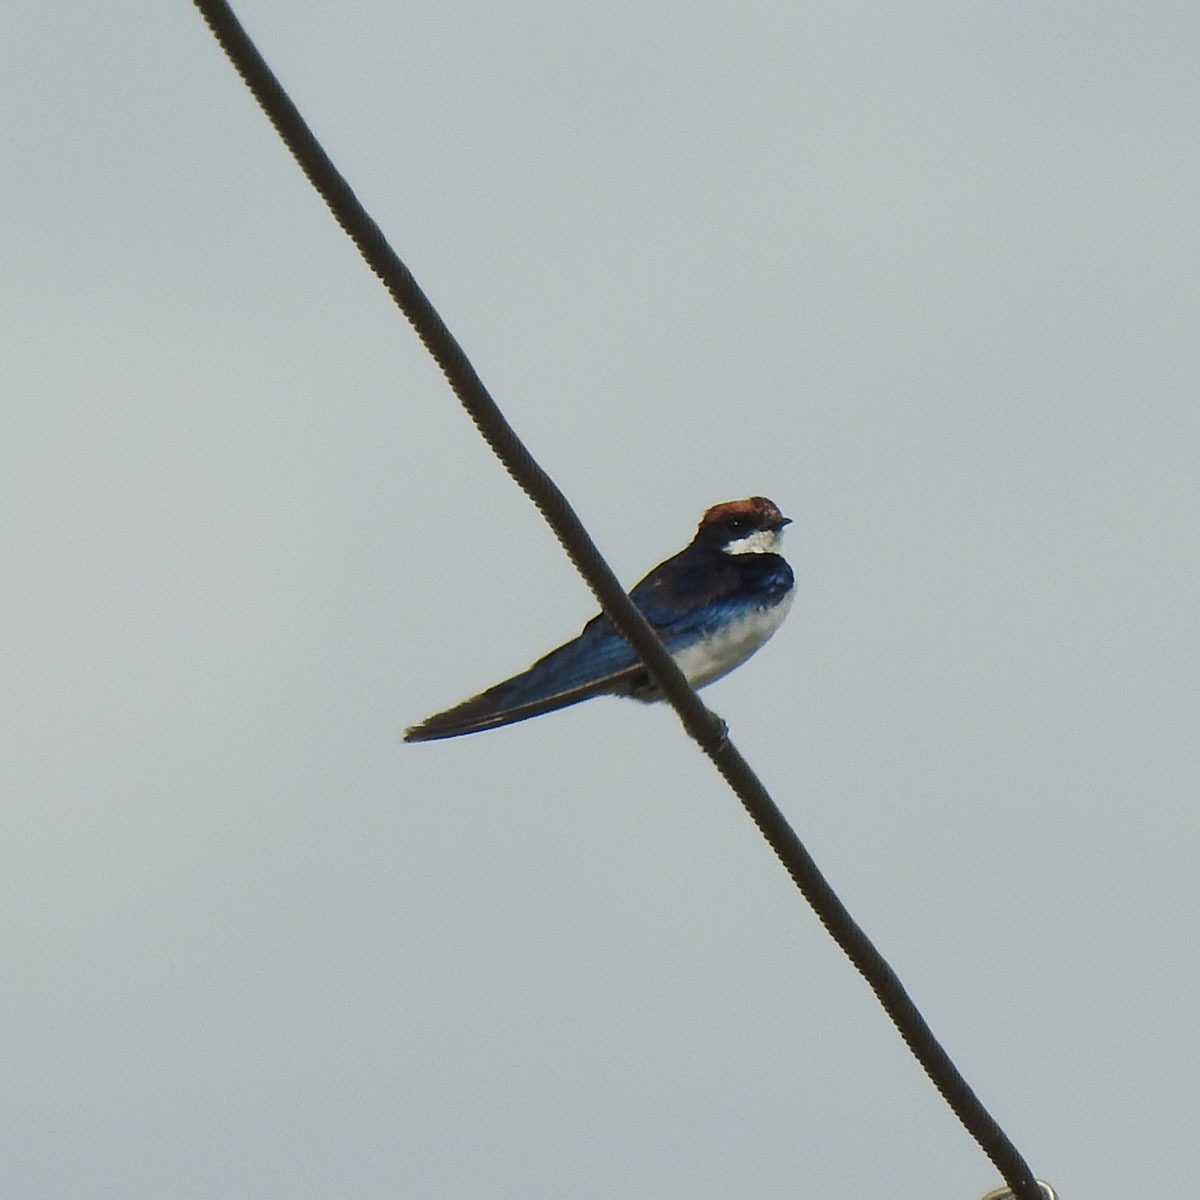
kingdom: Animalia
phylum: Chordata
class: Aves
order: Passeriformes
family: Hirundinidae
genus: Hirundo
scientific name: Hirundo smithii
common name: Wire-tailed swallow
